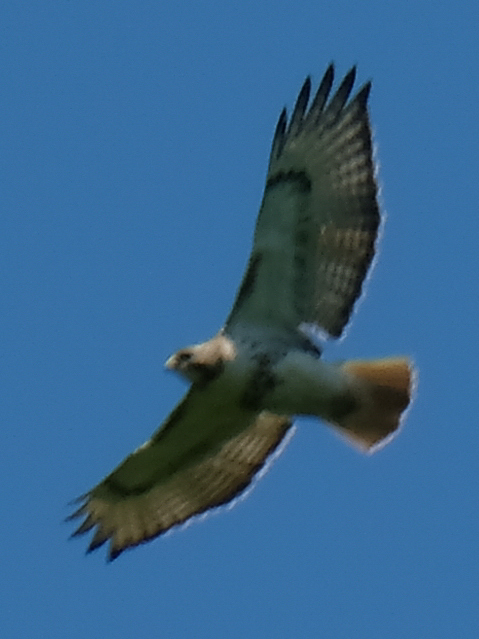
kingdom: Animalia
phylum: Chordata
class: Aves
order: Accipitriformes
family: Accipitridae
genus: Buteo
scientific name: Buteo jamaicensis
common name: Red-tailed hawk
